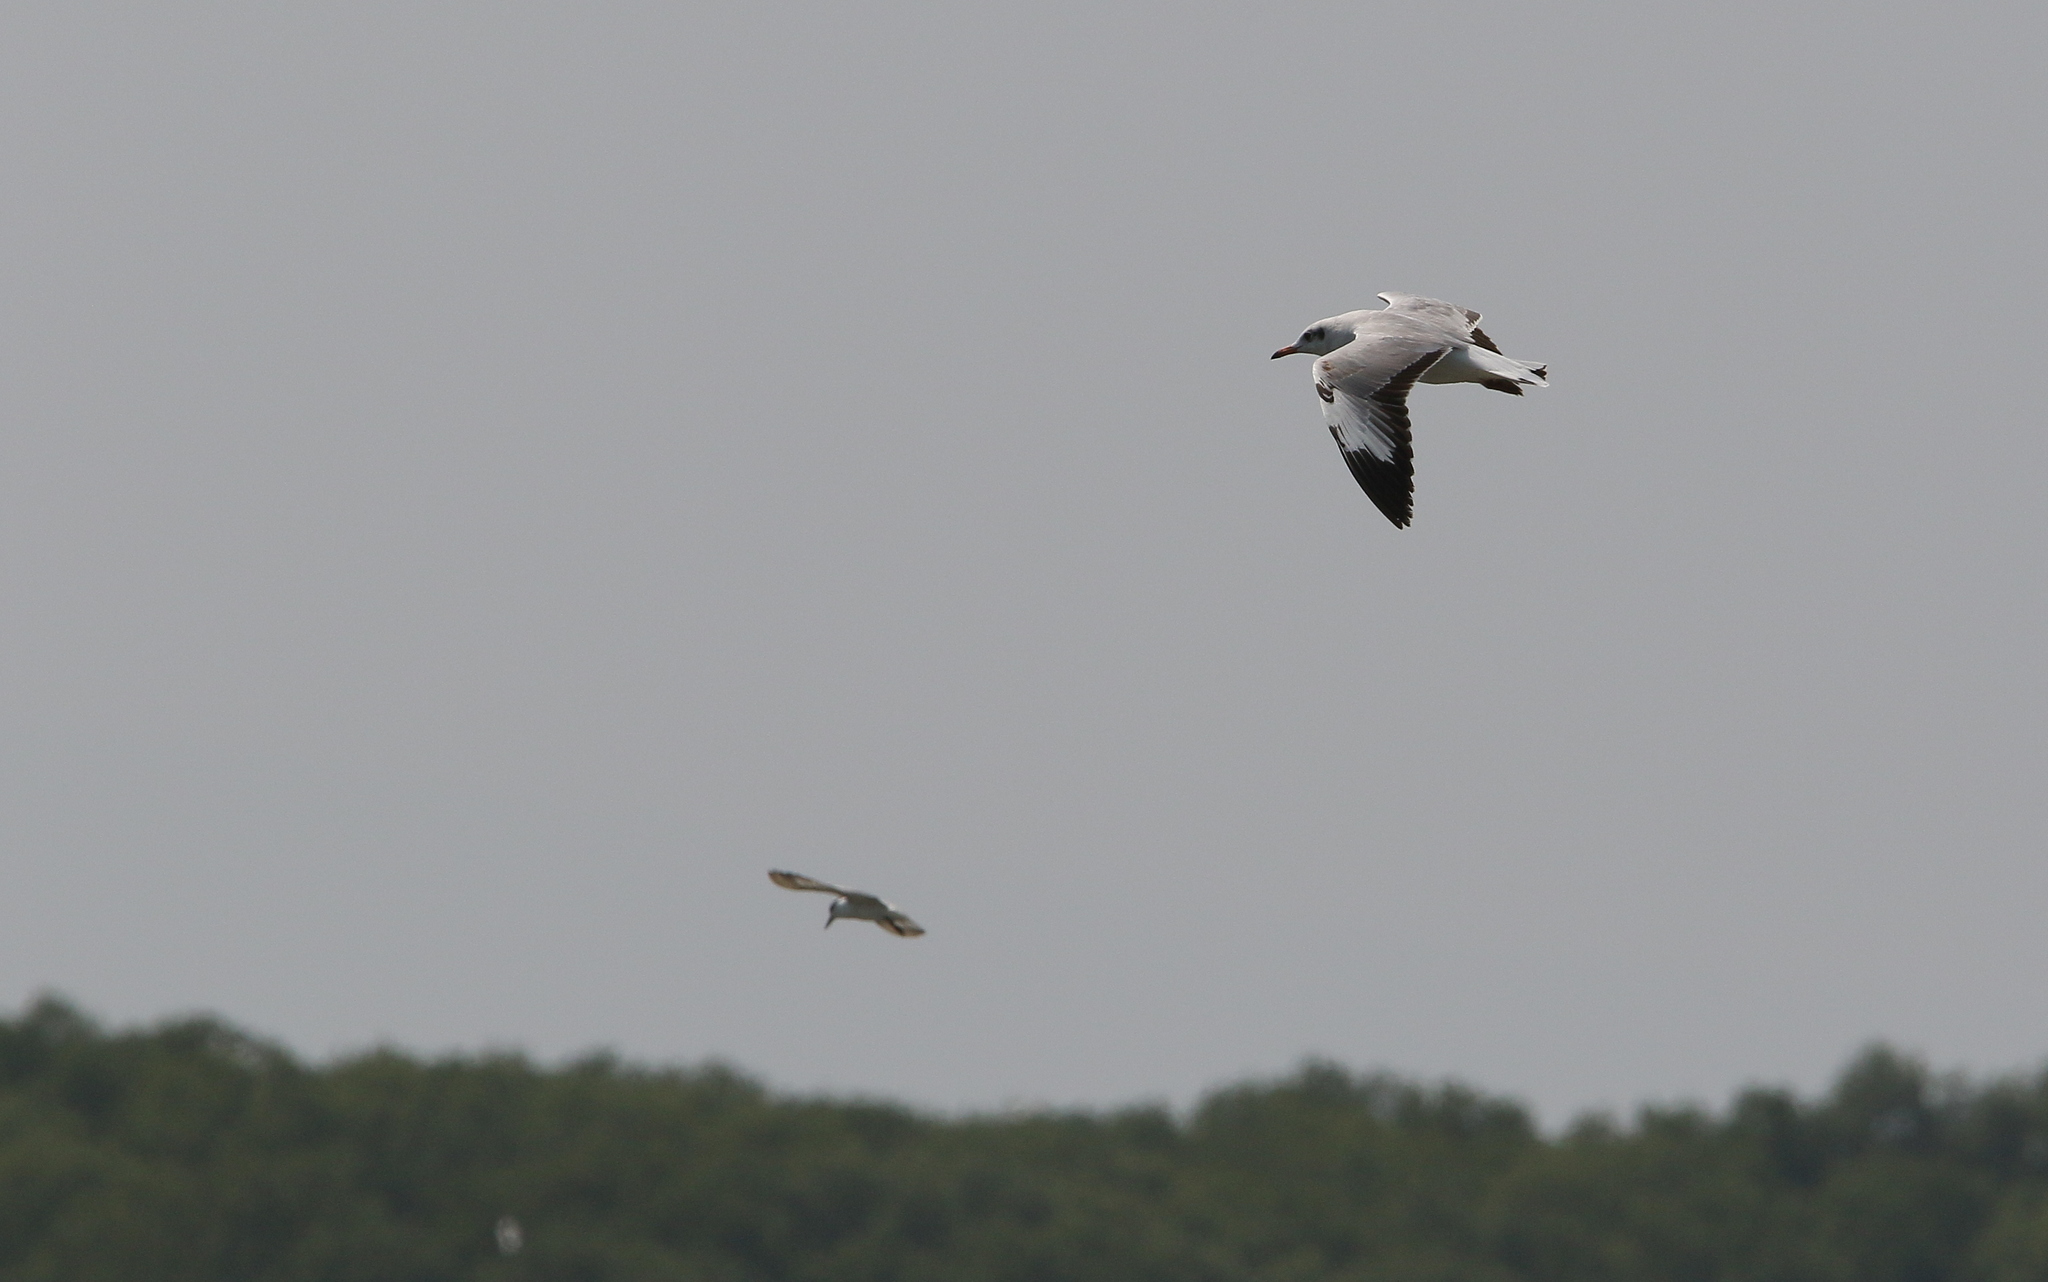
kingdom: Animalia
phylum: Chordata
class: Aves
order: Charadriiformes
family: Laridae
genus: Chroicocephalus
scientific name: Chroicocephalus brunnicephalus
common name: Brown-headed gull
